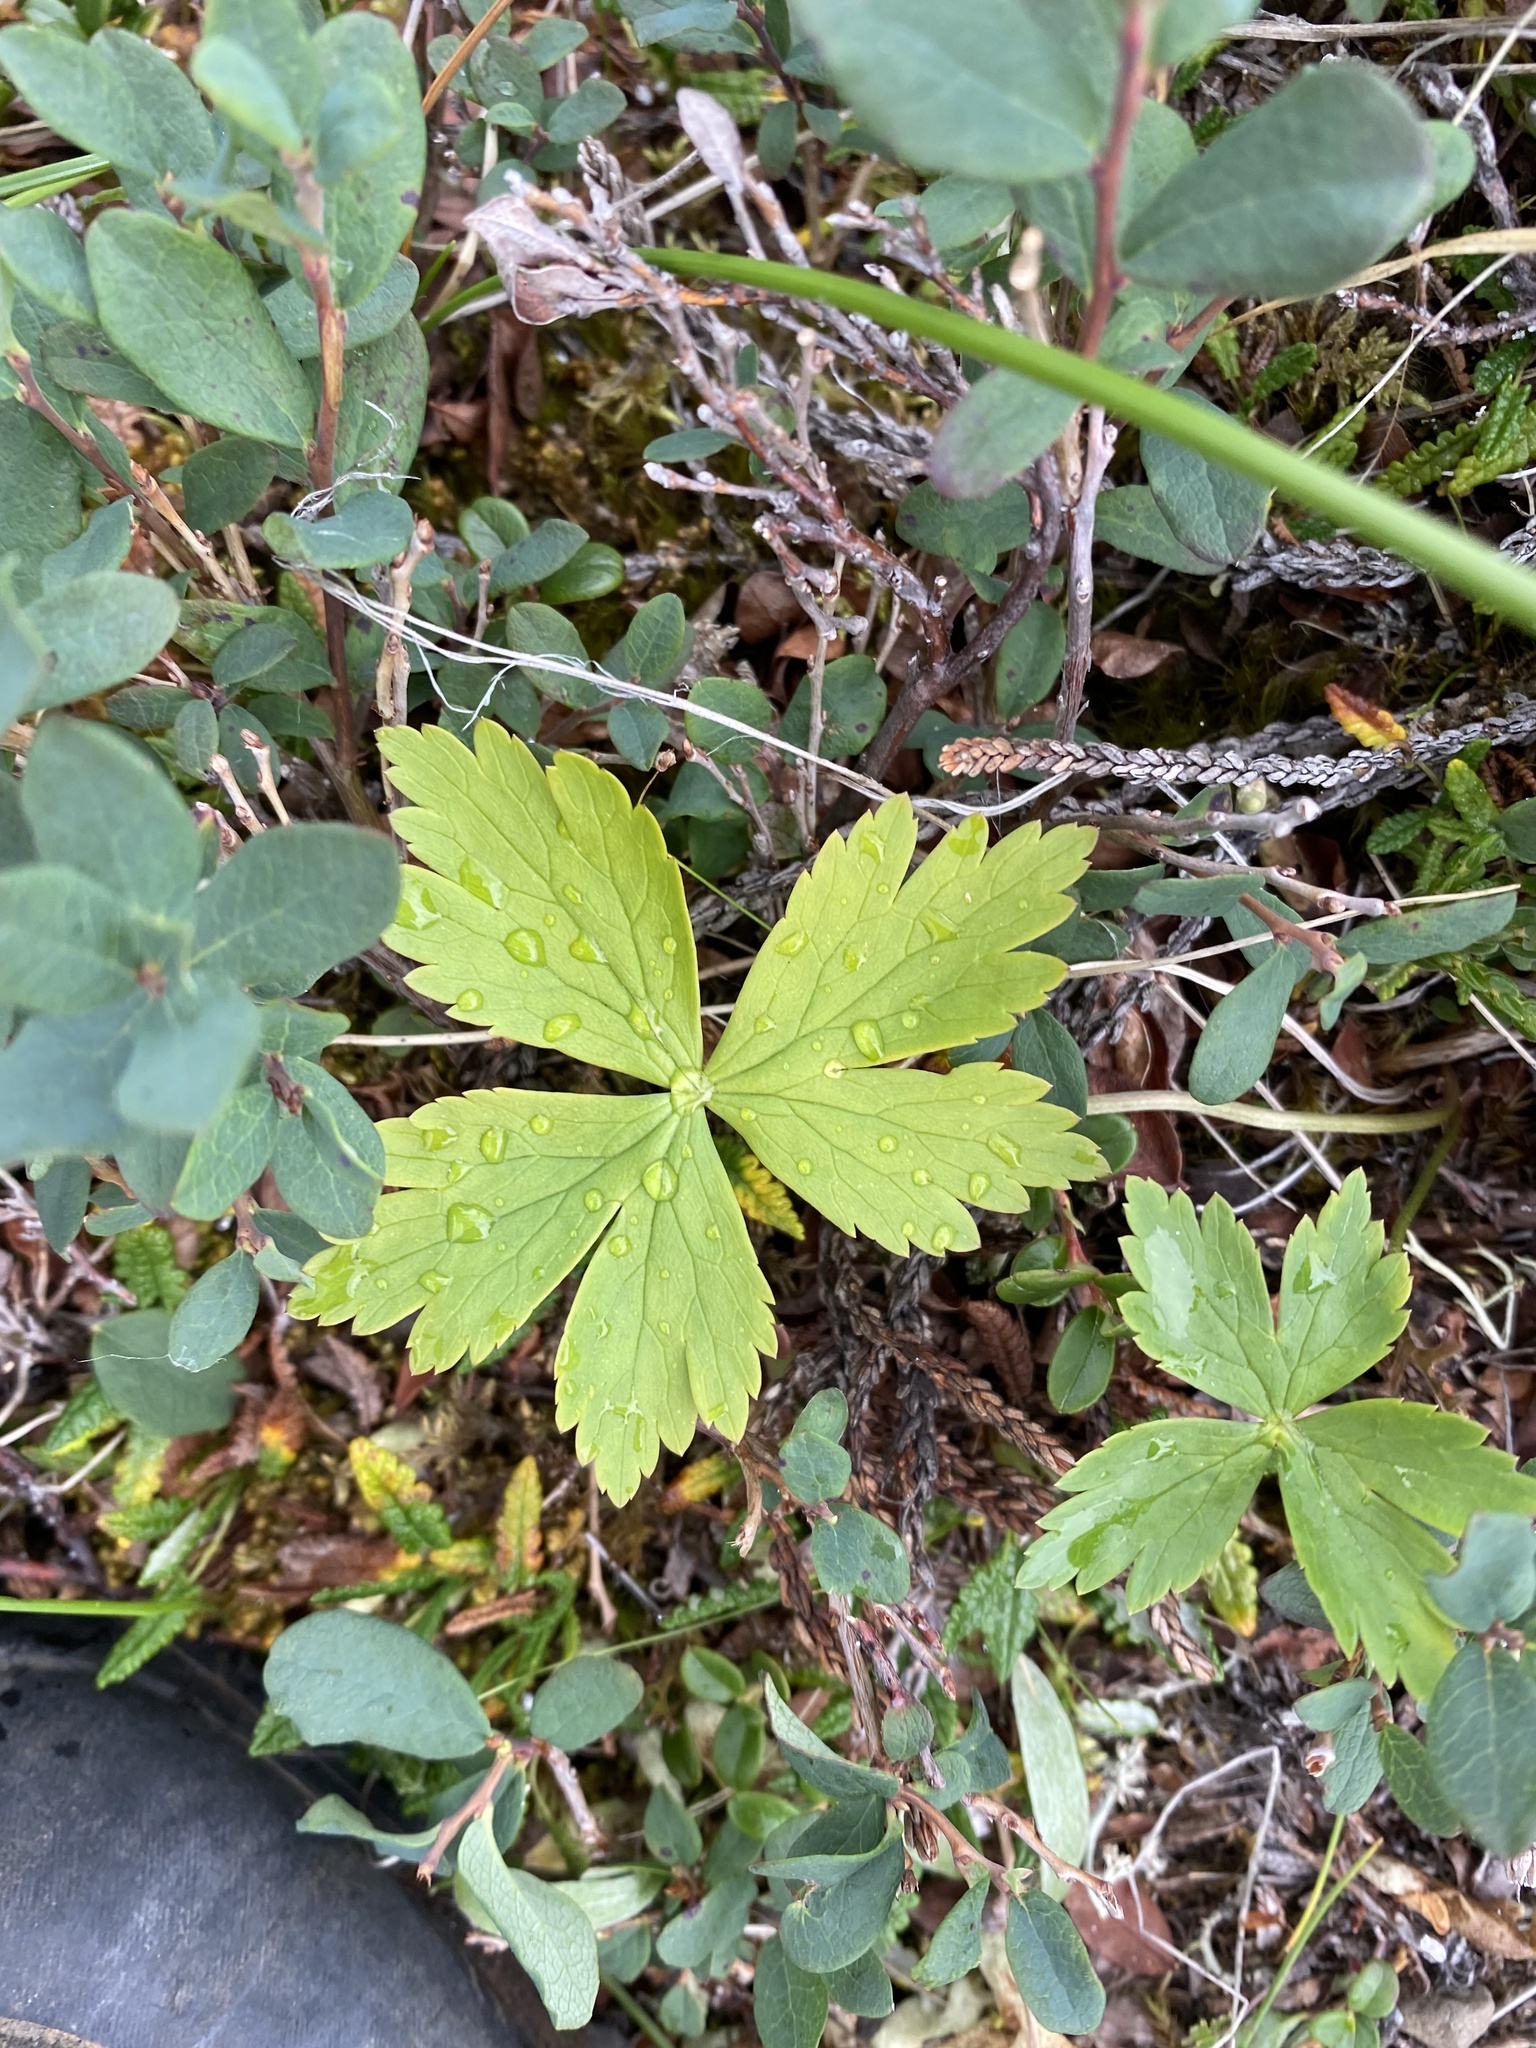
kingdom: Plantae
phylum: Tracheophyta
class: Magnoliopsida
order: Ranunculales
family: Ranunculaceae
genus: Trollius
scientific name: Trollius
